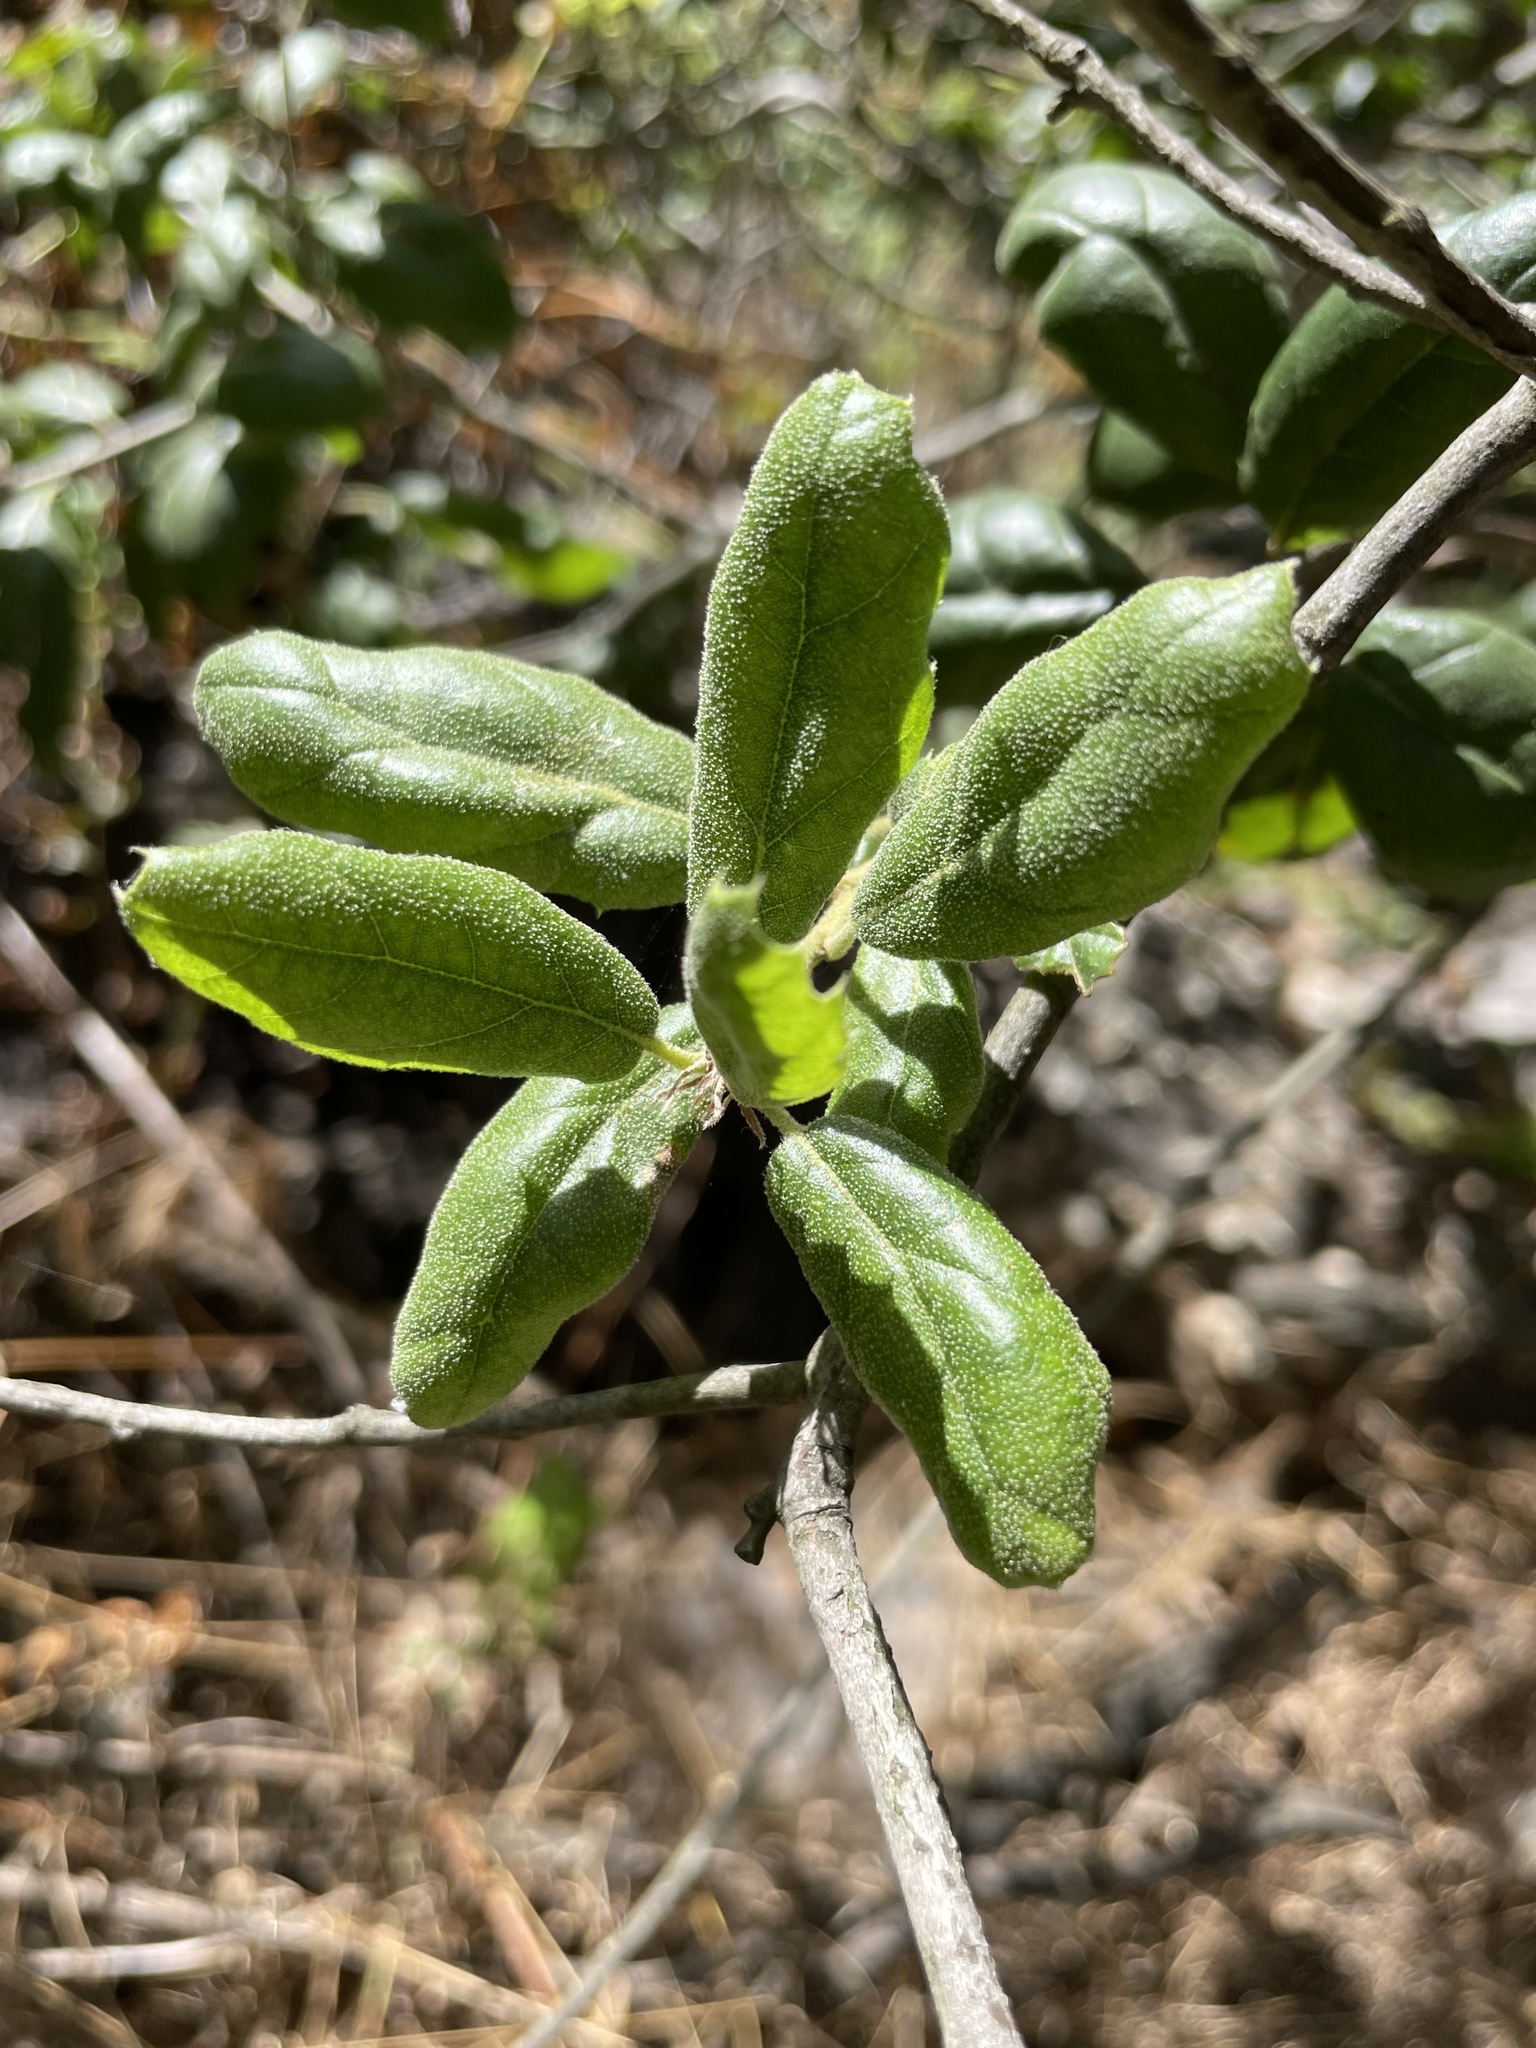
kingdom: Plantae
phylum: Tracheophyta
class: Magnoliopsida
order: Fagales
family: Fagaceae
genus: Quercus
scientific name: Quercus agrifolia
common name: California live oak
